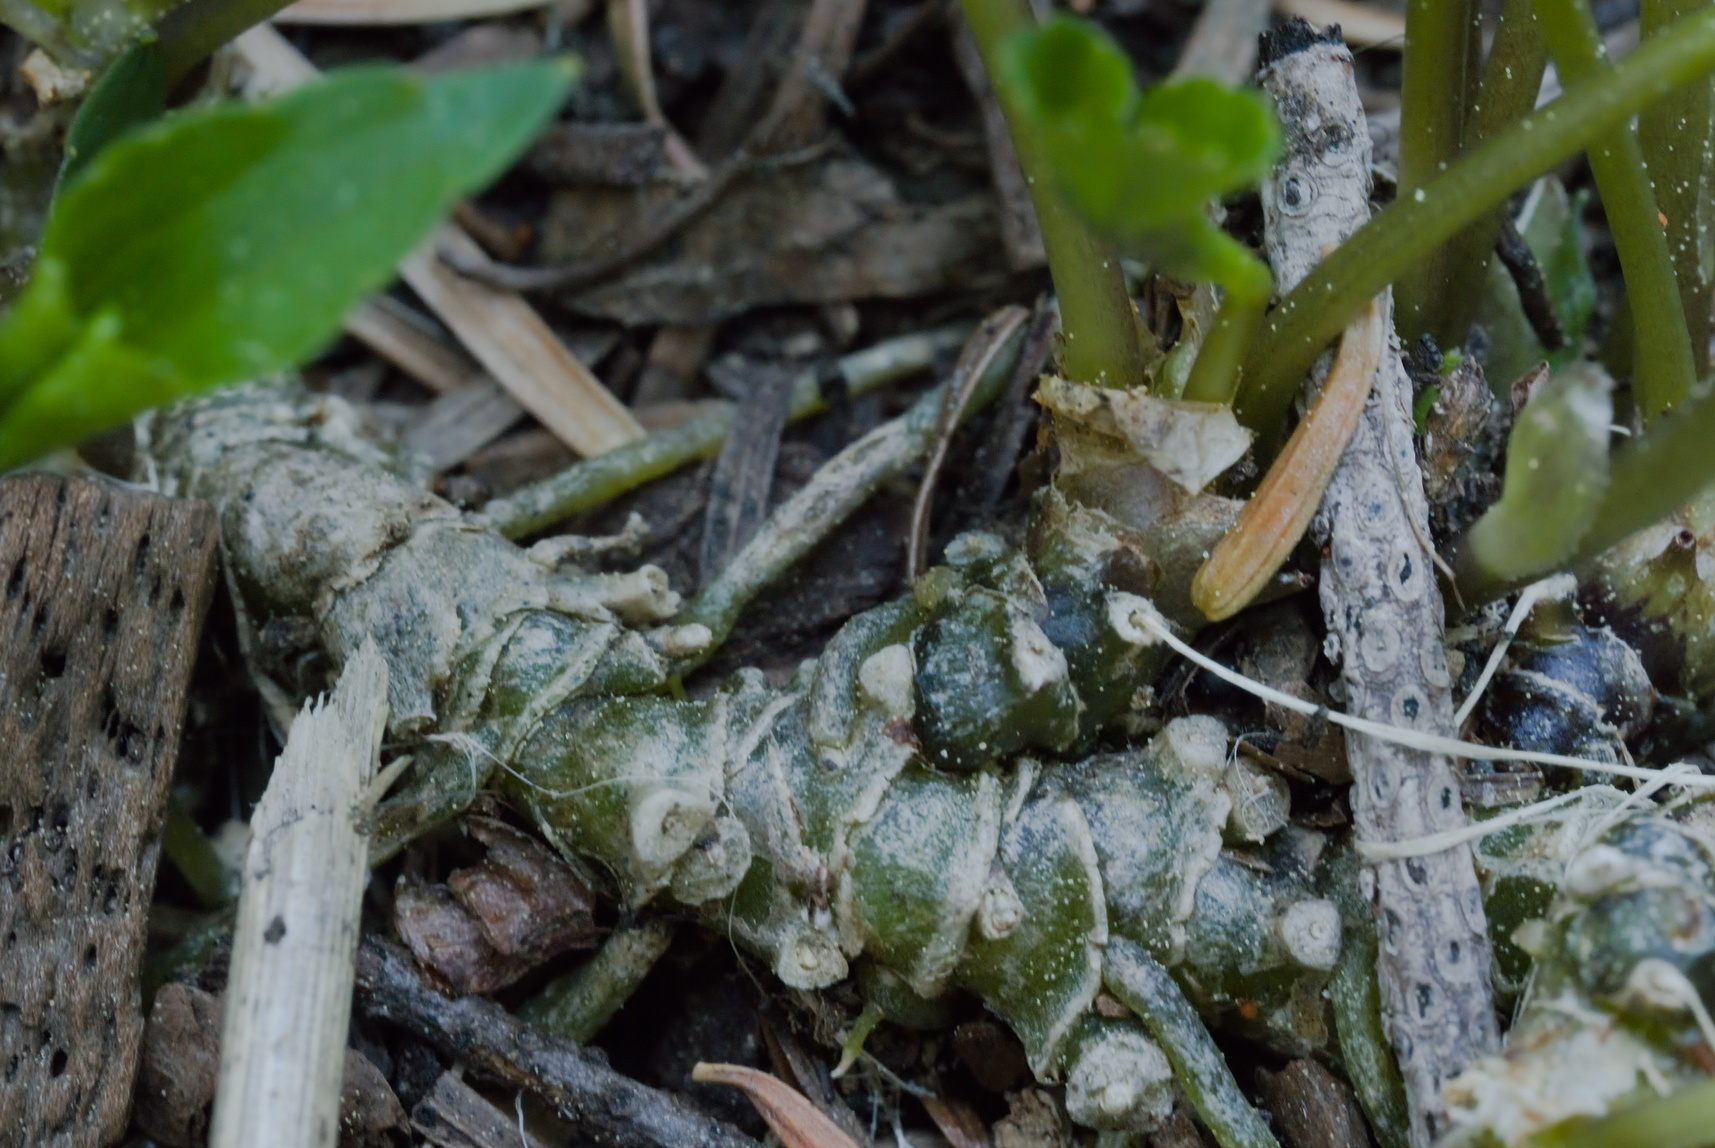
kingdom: Plantae
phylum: Tracheophyta
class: Magnoliopsida
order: Malpighiales
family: Violaceae
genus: Viola
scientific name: Viola glabella
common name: Stream violet
